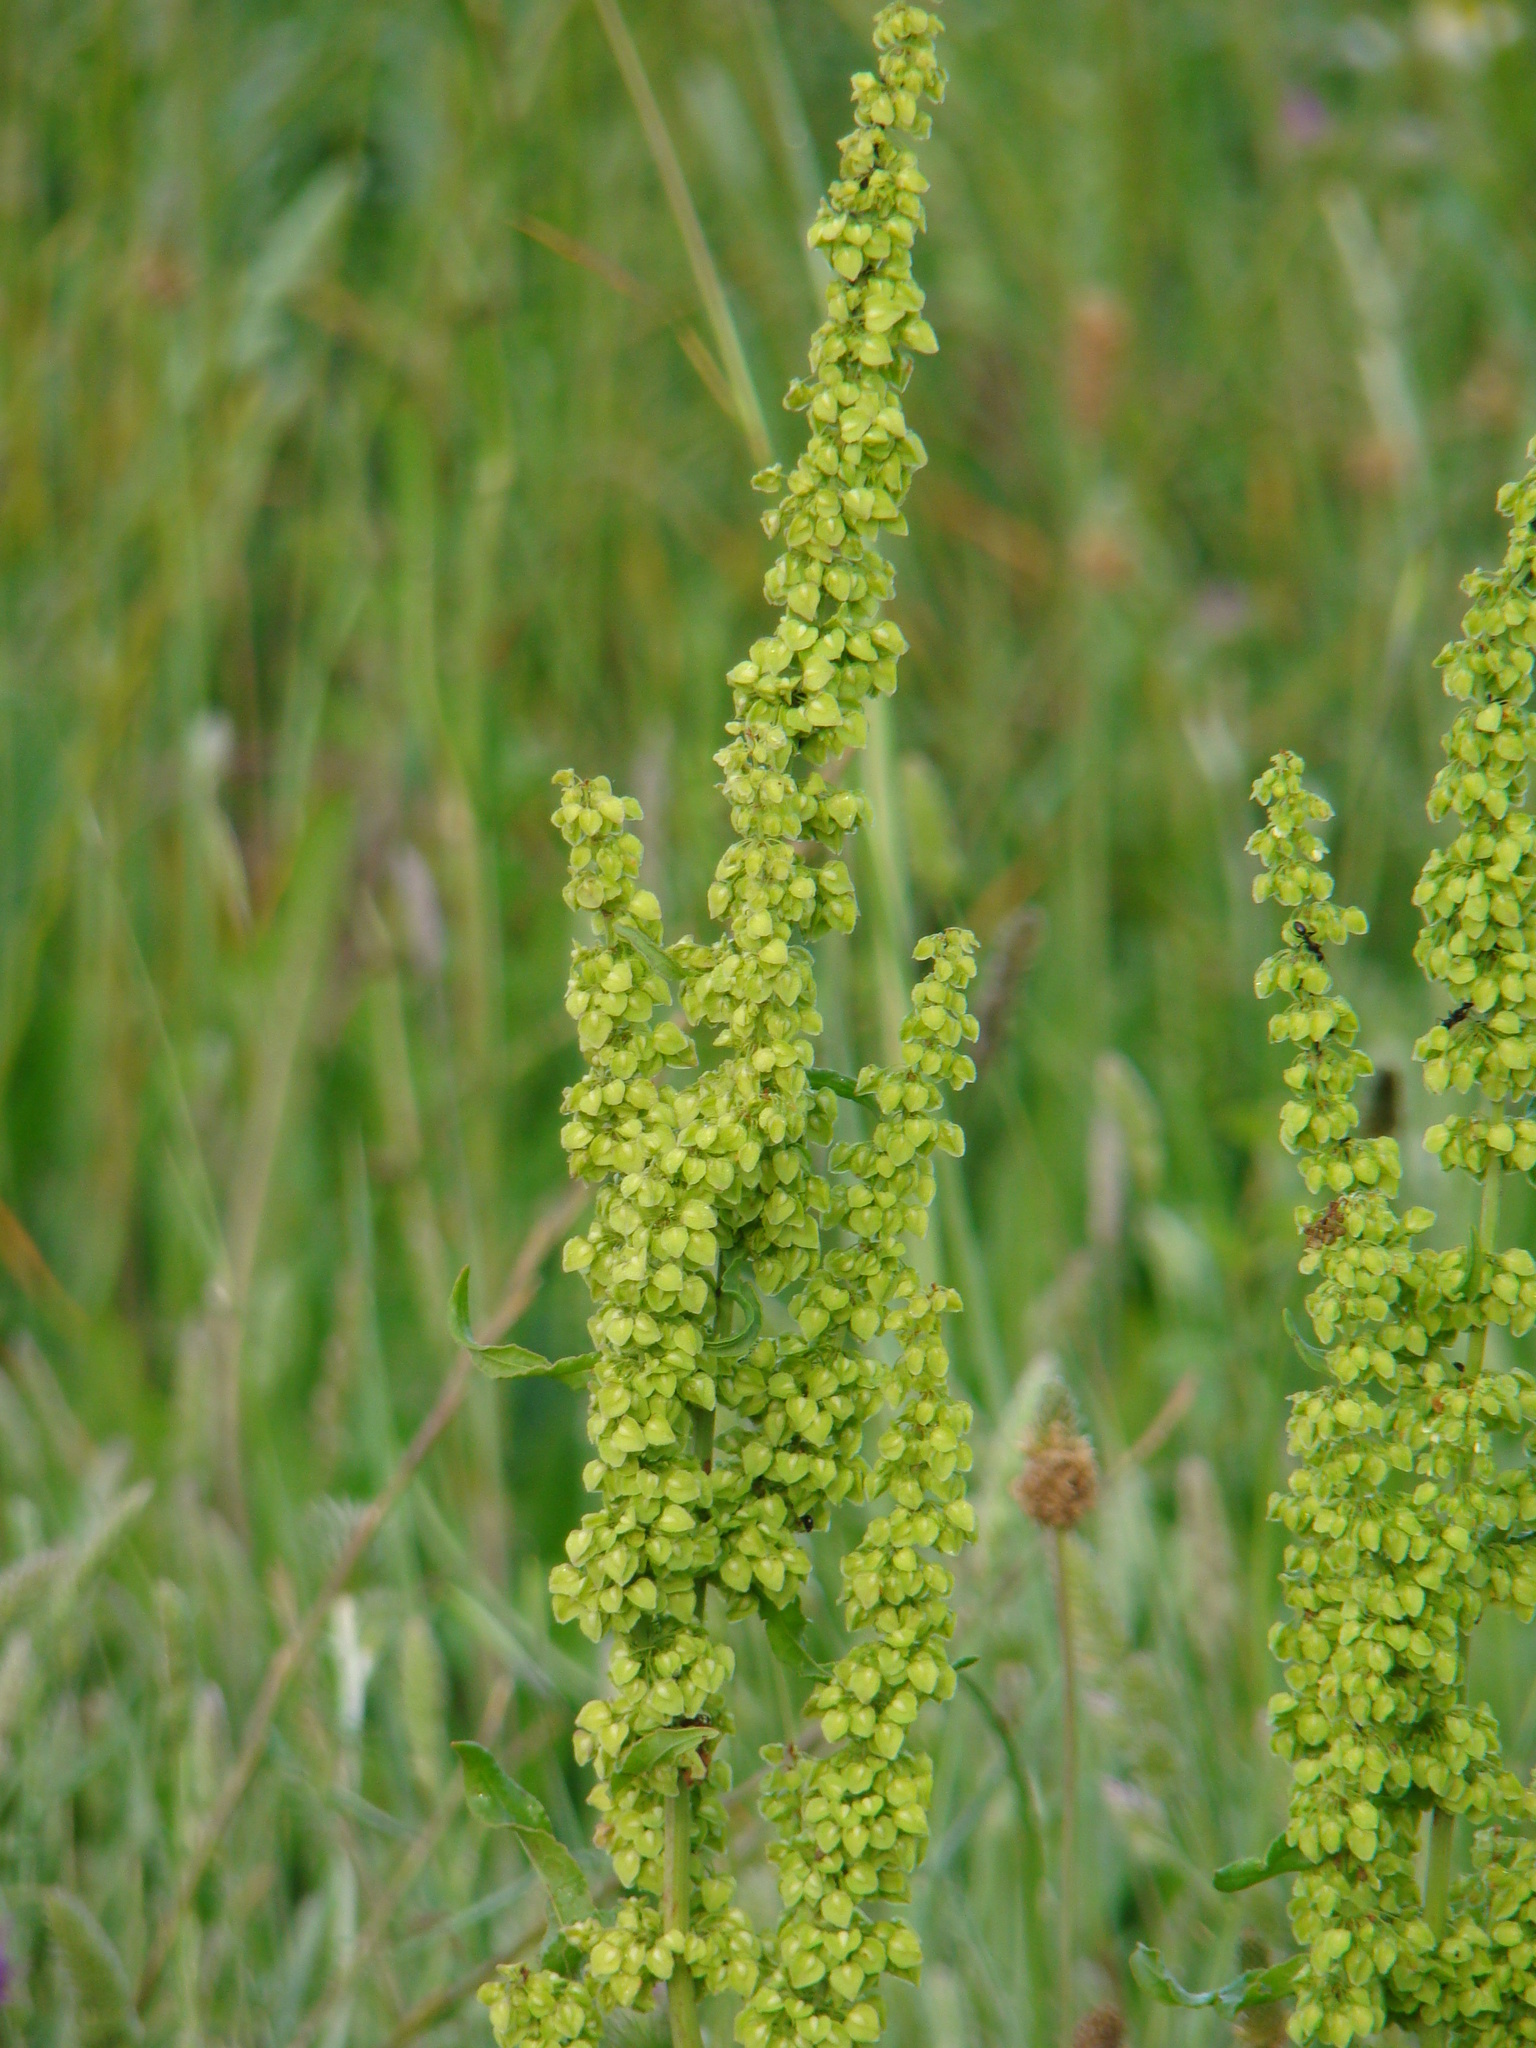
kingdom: Plantae
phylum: Tracheophyta
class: Magnoliopsida
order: Caryophyllales
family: Polygonaceae
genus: Rumex
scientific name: Rumex crispus
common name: Curled dock
